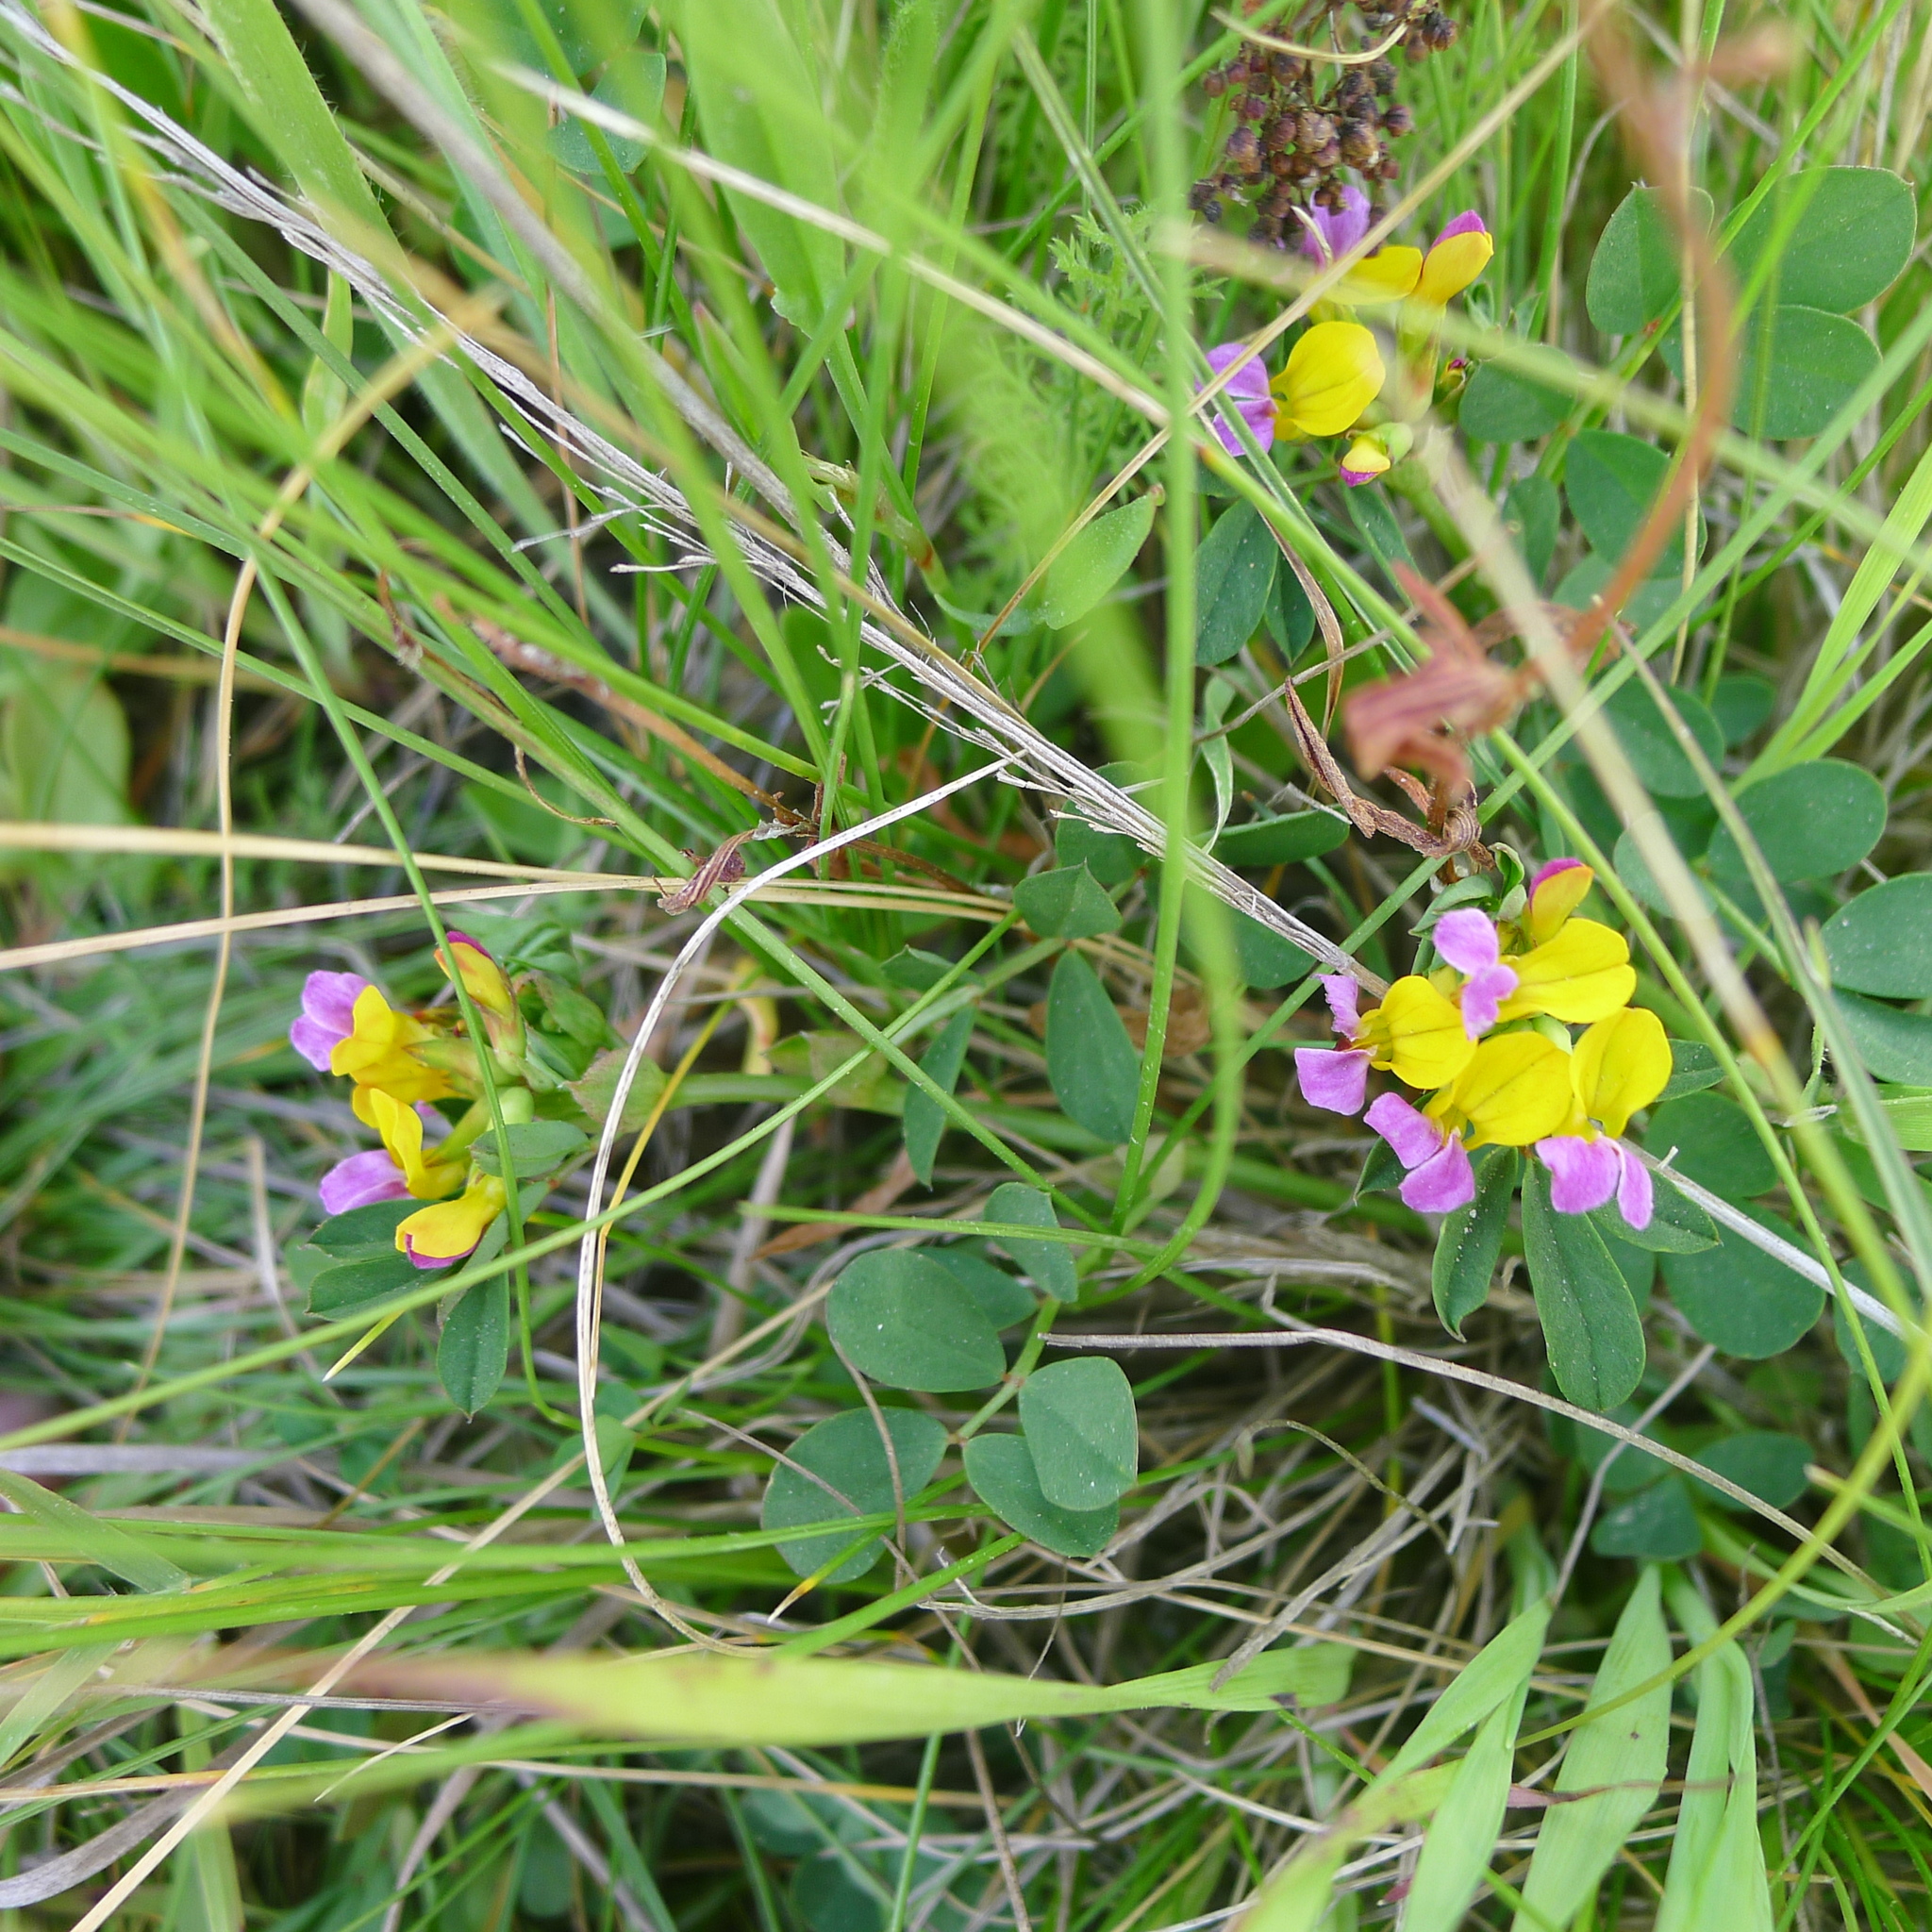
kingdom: Plantae
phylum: Tracheophyta
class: Magnoliopsida
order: Fabales
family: Fabaceae
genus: Hosackia
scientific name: Hosackia gracilis
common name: Seaside bird's-foot lotus
